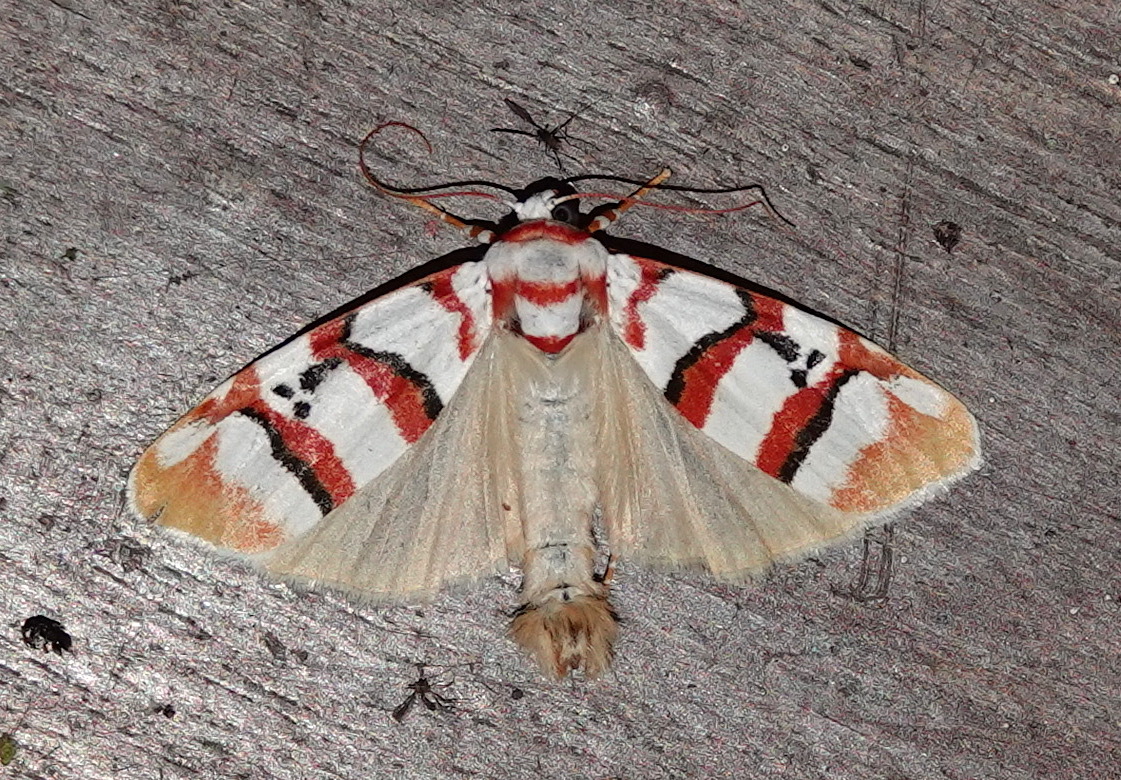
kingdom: Animalia
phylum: Arthropoda
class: Insecta
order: Lepidoptera
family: Erebidae
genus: Cyana
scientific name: Cyana cruentata
